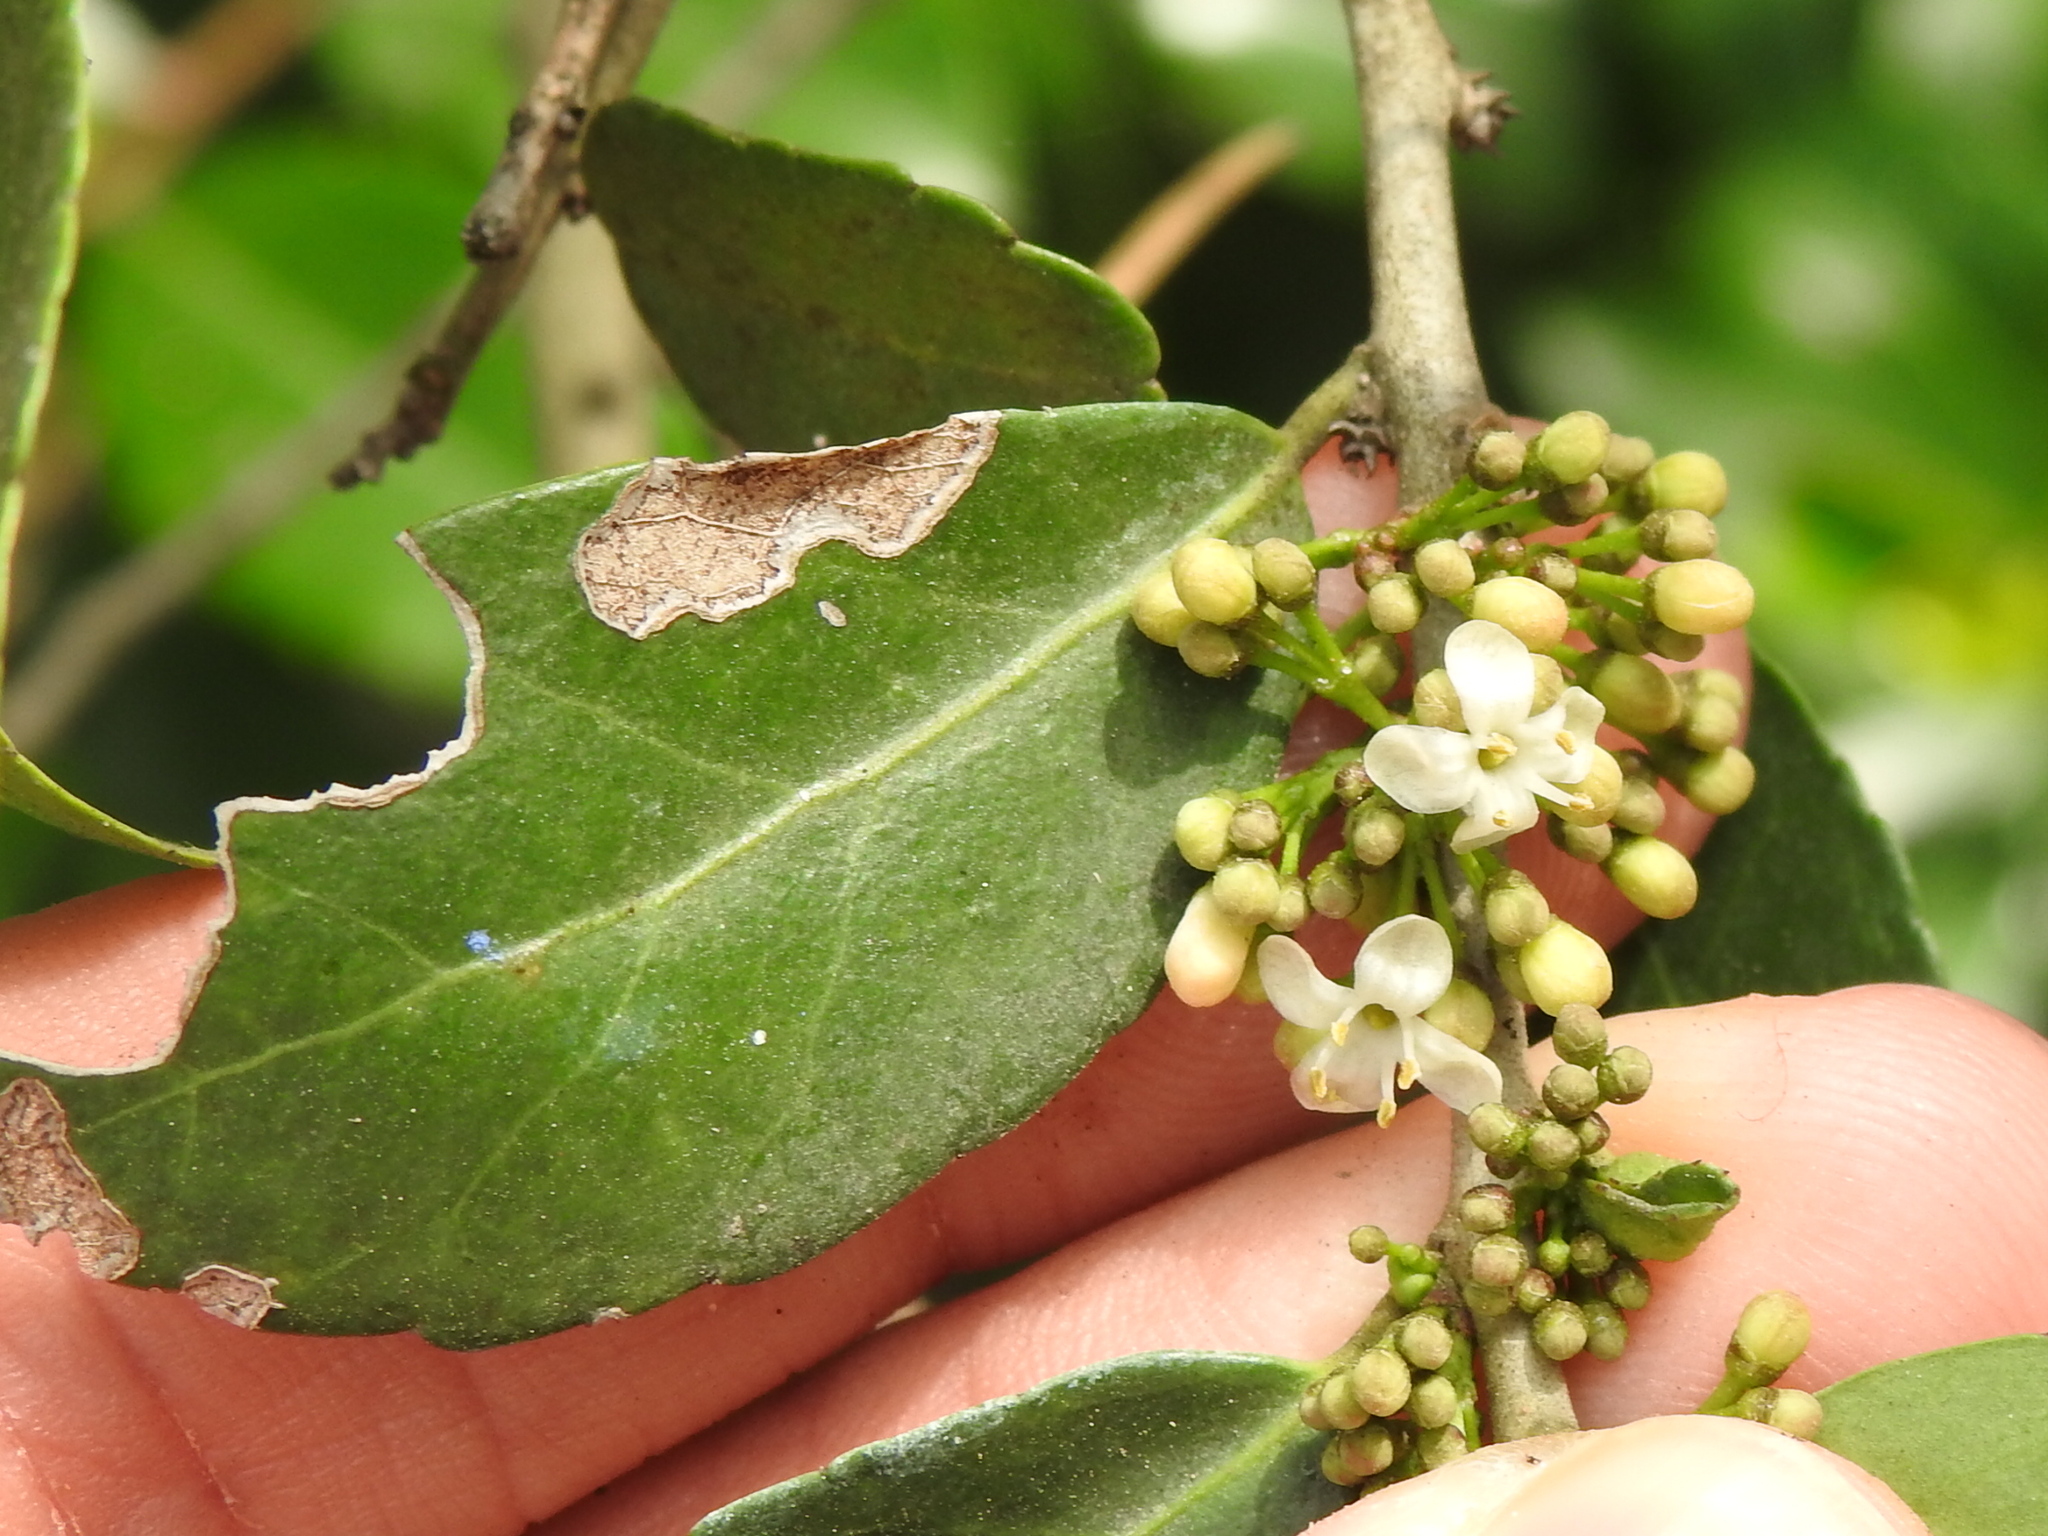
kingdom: Plantae
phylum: Tracheophyta
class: Magnoliopsida
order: Aquifoliales
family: Aquifoliaceae
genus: Ilex
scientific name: Ilex vomitoria
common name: Yaupon holly
